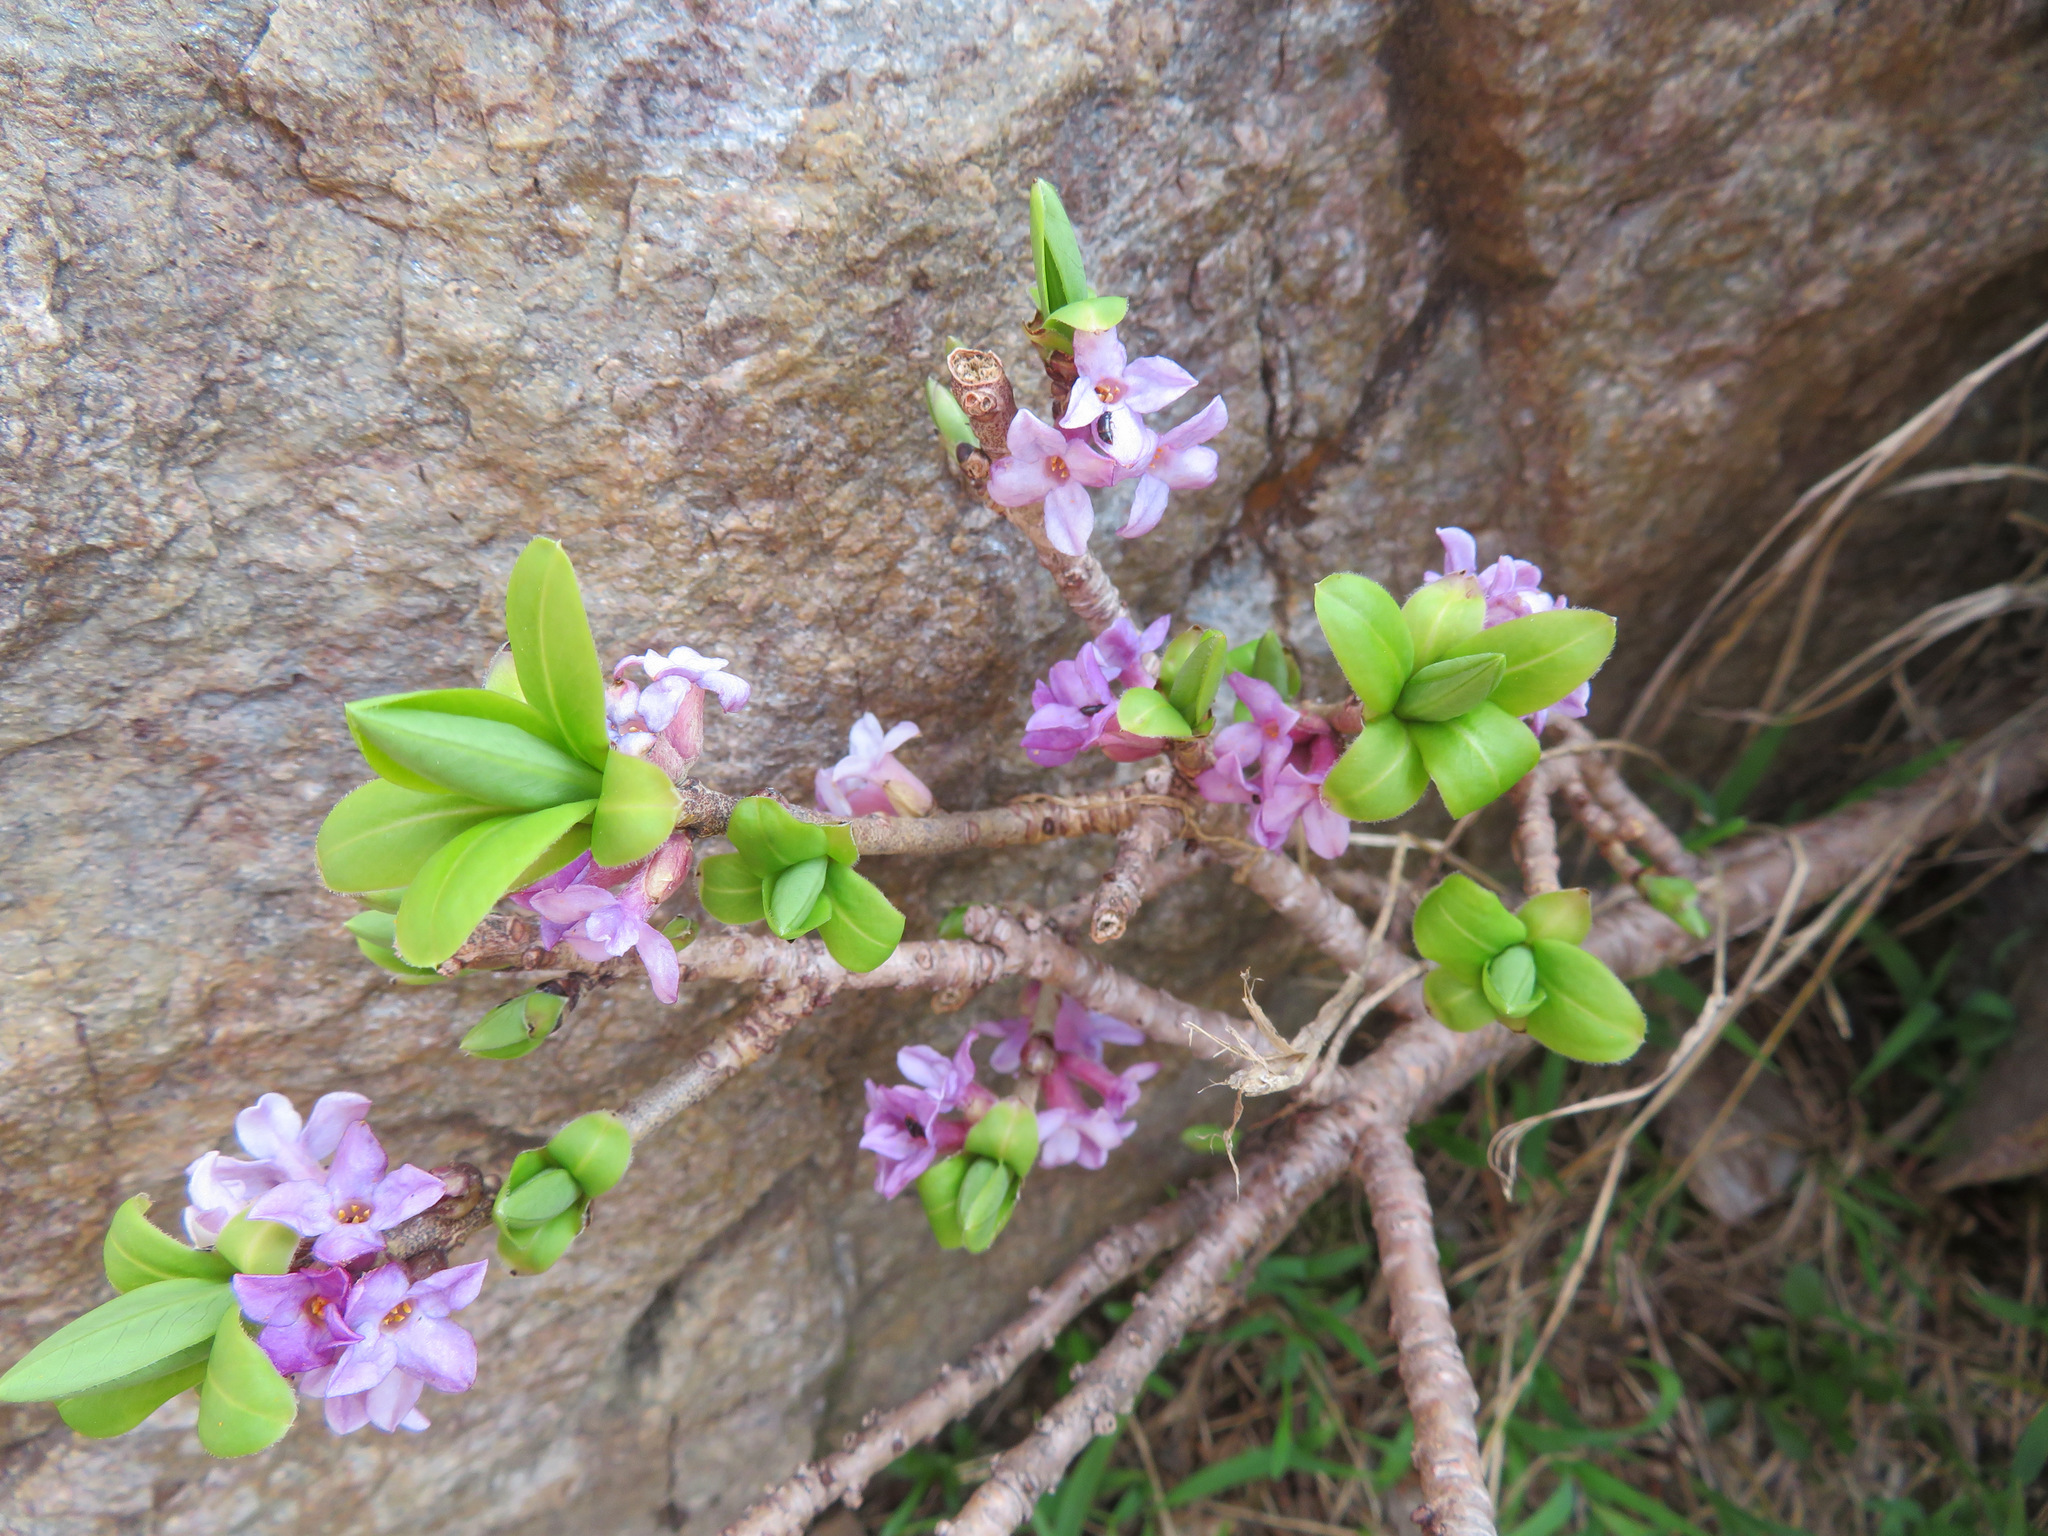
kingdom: Plantae
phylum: Tracheophyta
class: Magnoliopsida
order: Malvales
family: Thymelaeaceae
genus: Daphne
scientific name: Daphne mezereum
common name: Mezereon
